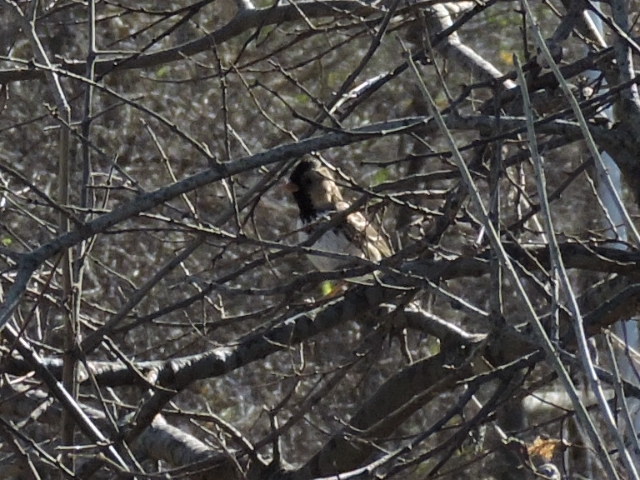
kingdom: Animalia
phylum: Chordata
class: Aves
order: Passeriformes
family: Passerellidae
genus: Zonotrichia
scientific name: Zonotrichia querula
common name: Harris's sparrow
